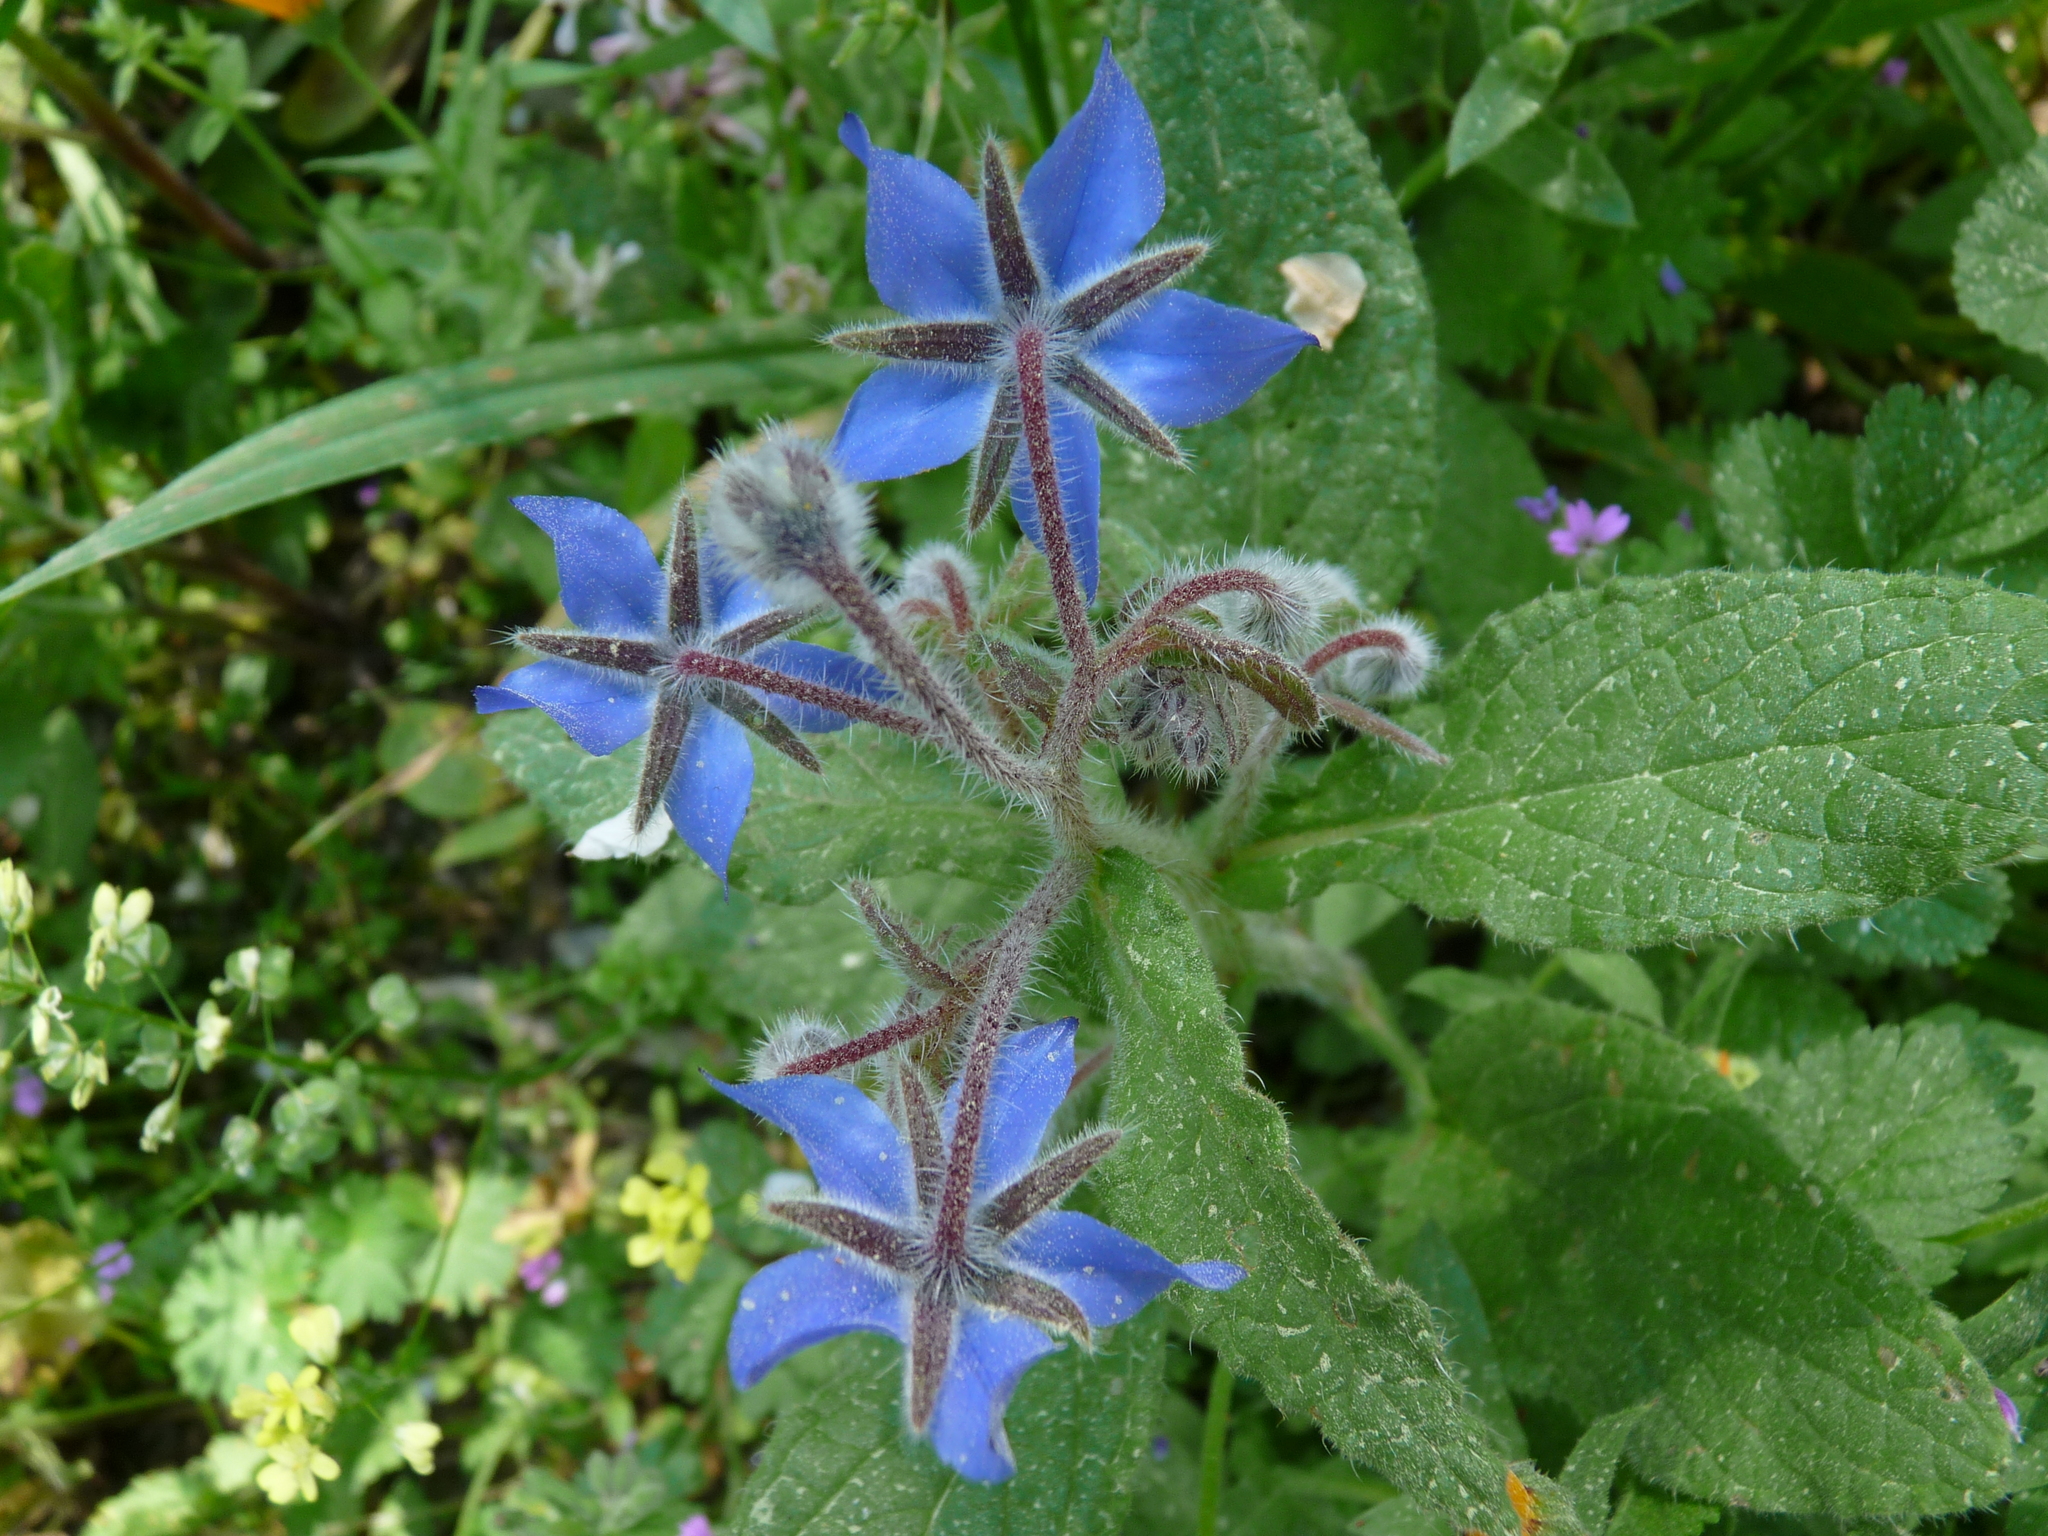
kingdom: Plantae
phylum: Tracheophyta
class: Magnoliopsida
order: Boraginales
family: Boraginaceae
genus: Borago
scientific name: Borago officinalis
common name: Borage
